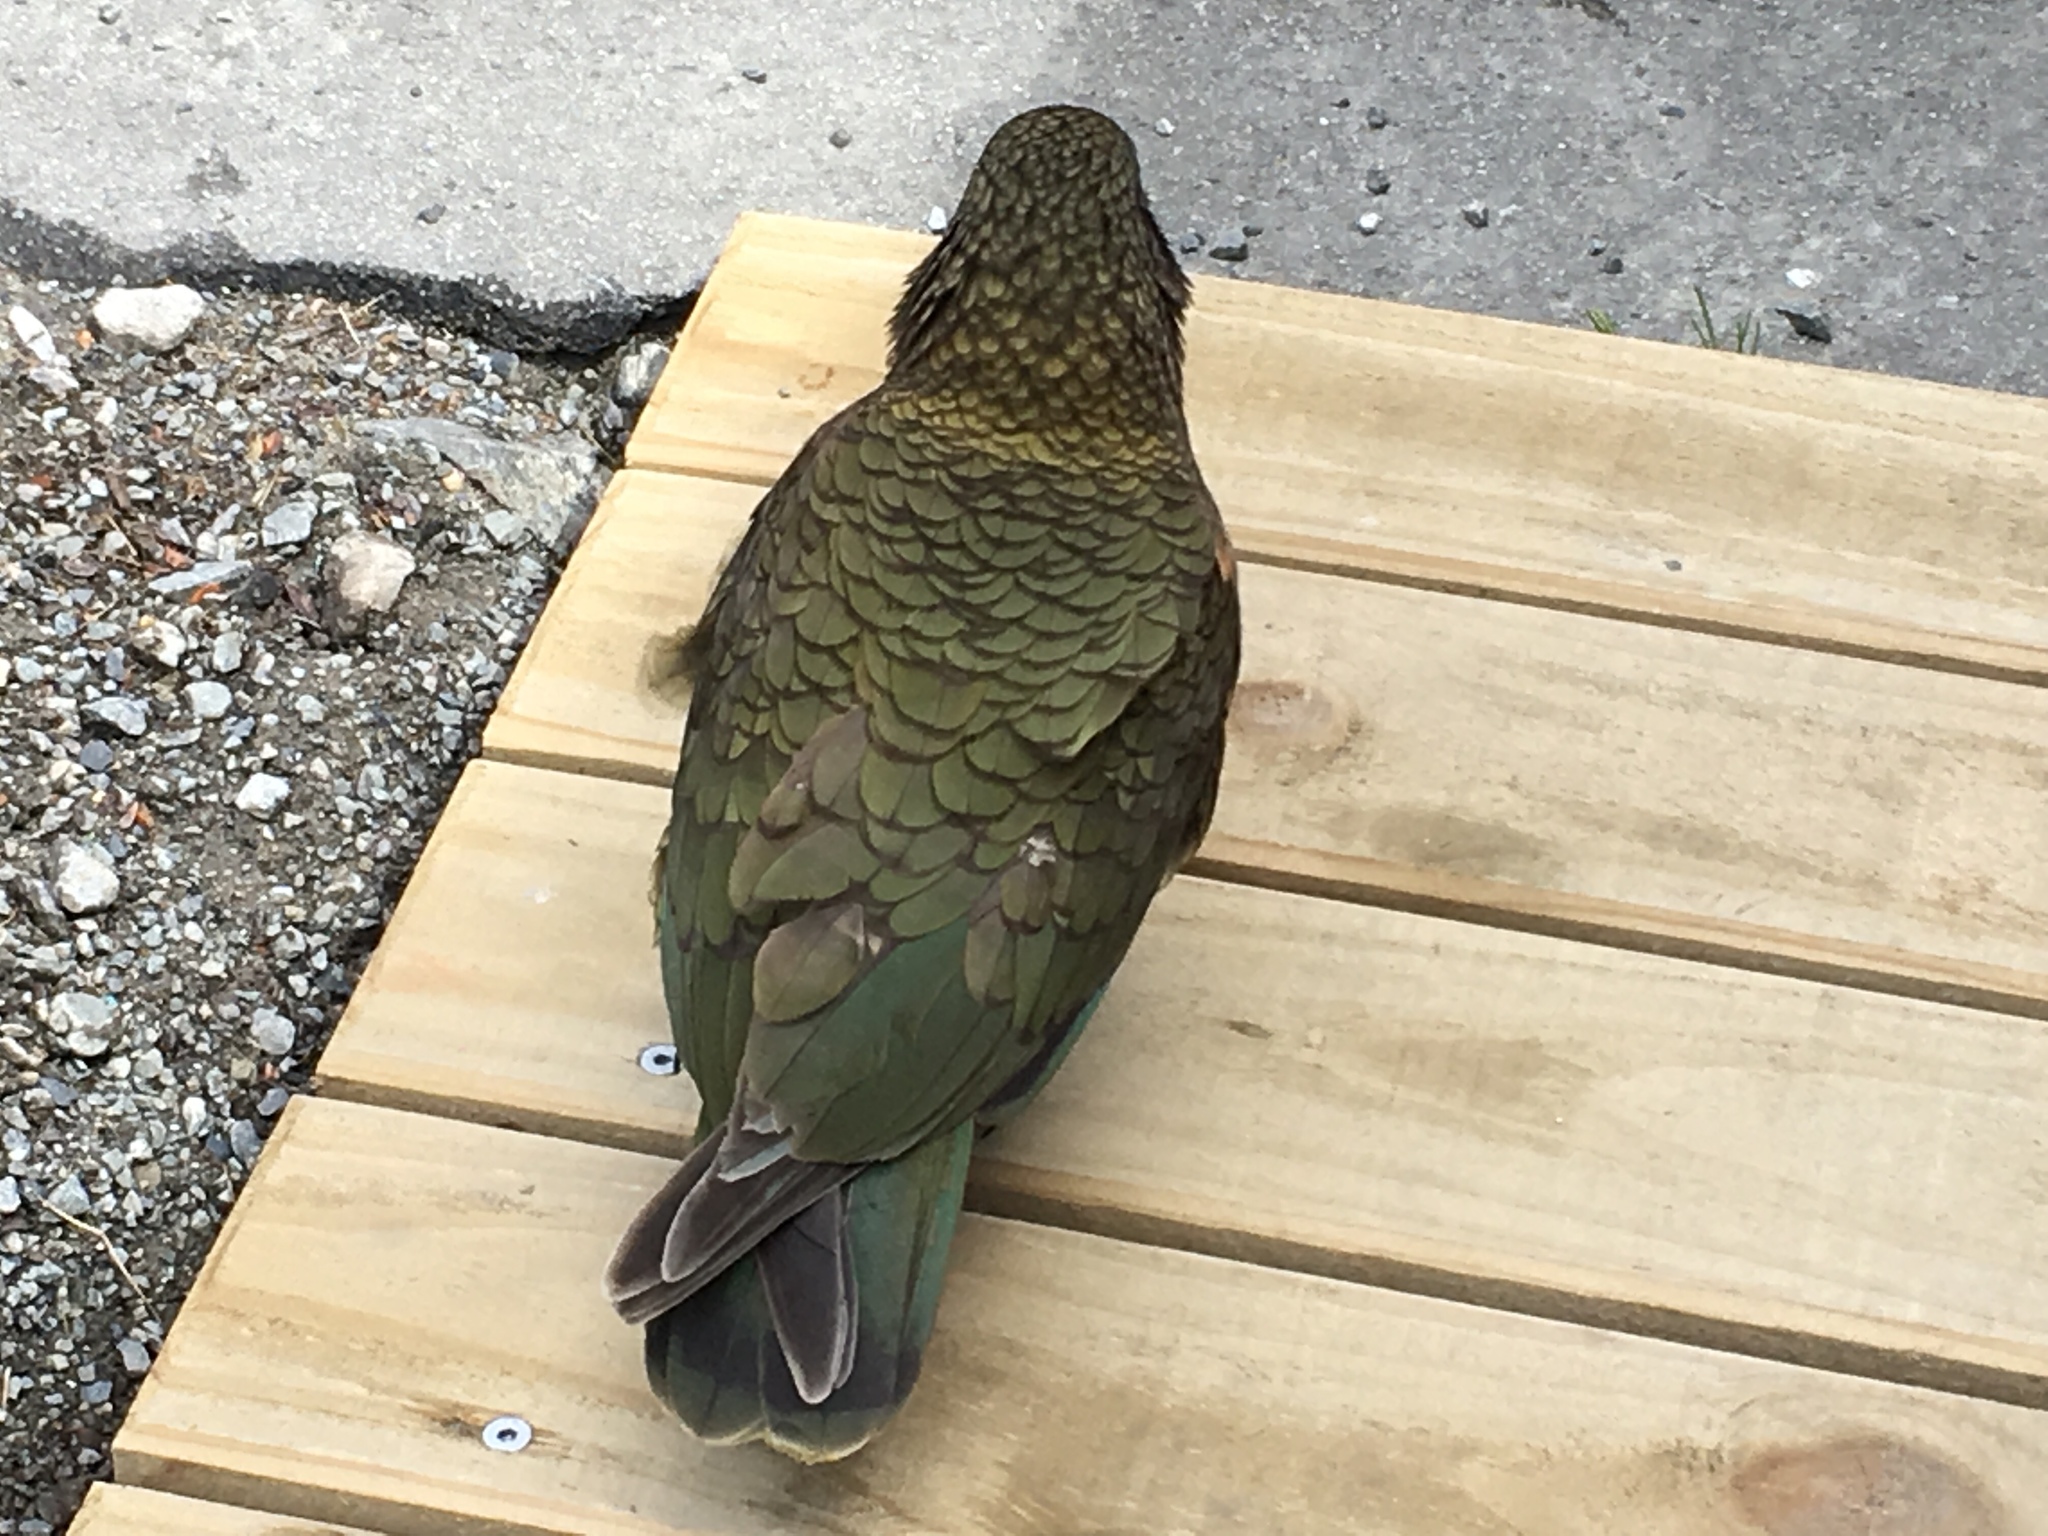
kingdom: Animalia
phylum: Chordata
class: Aves
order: Psittaciformes
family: Psittacidae
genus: Nestor
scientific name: Nestor notabilis
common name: Kea
